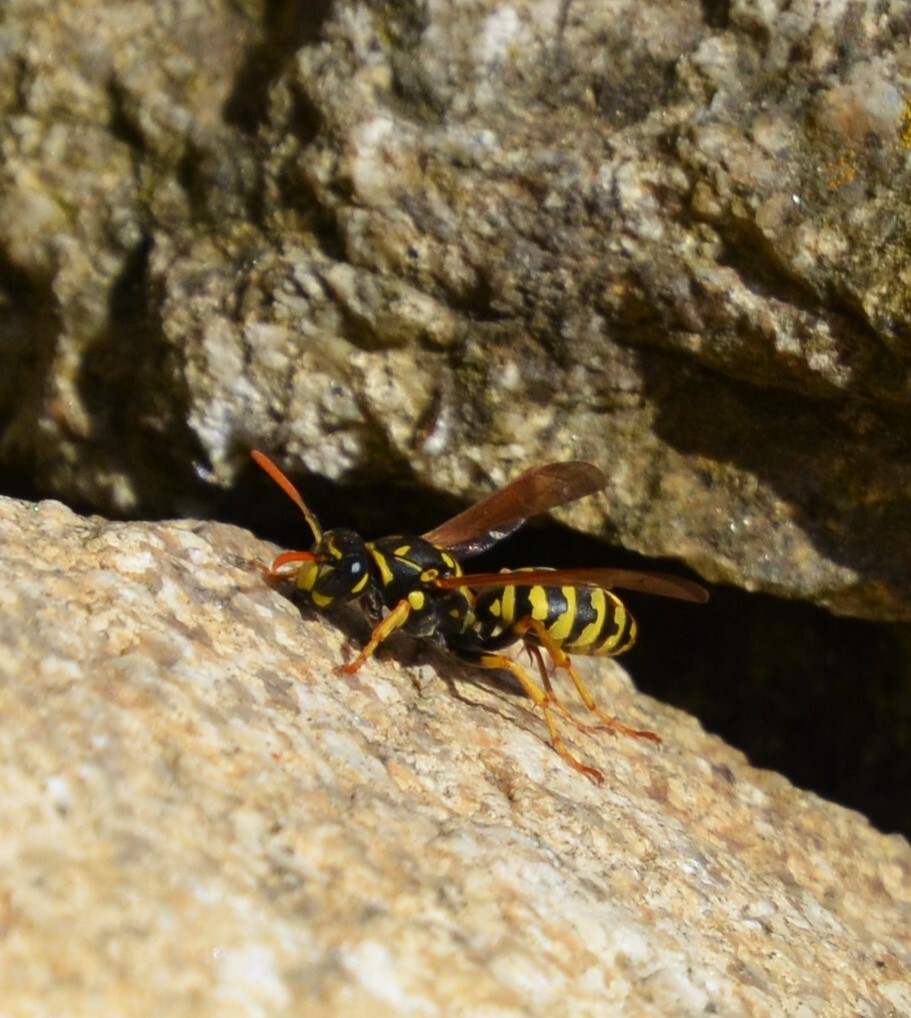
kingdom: Animalia
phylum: Arthropoda
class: Insecta
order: Hymenoptera
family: Eumenidae
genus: Polistes
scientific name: Polistes dominula
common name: Paper wasp
